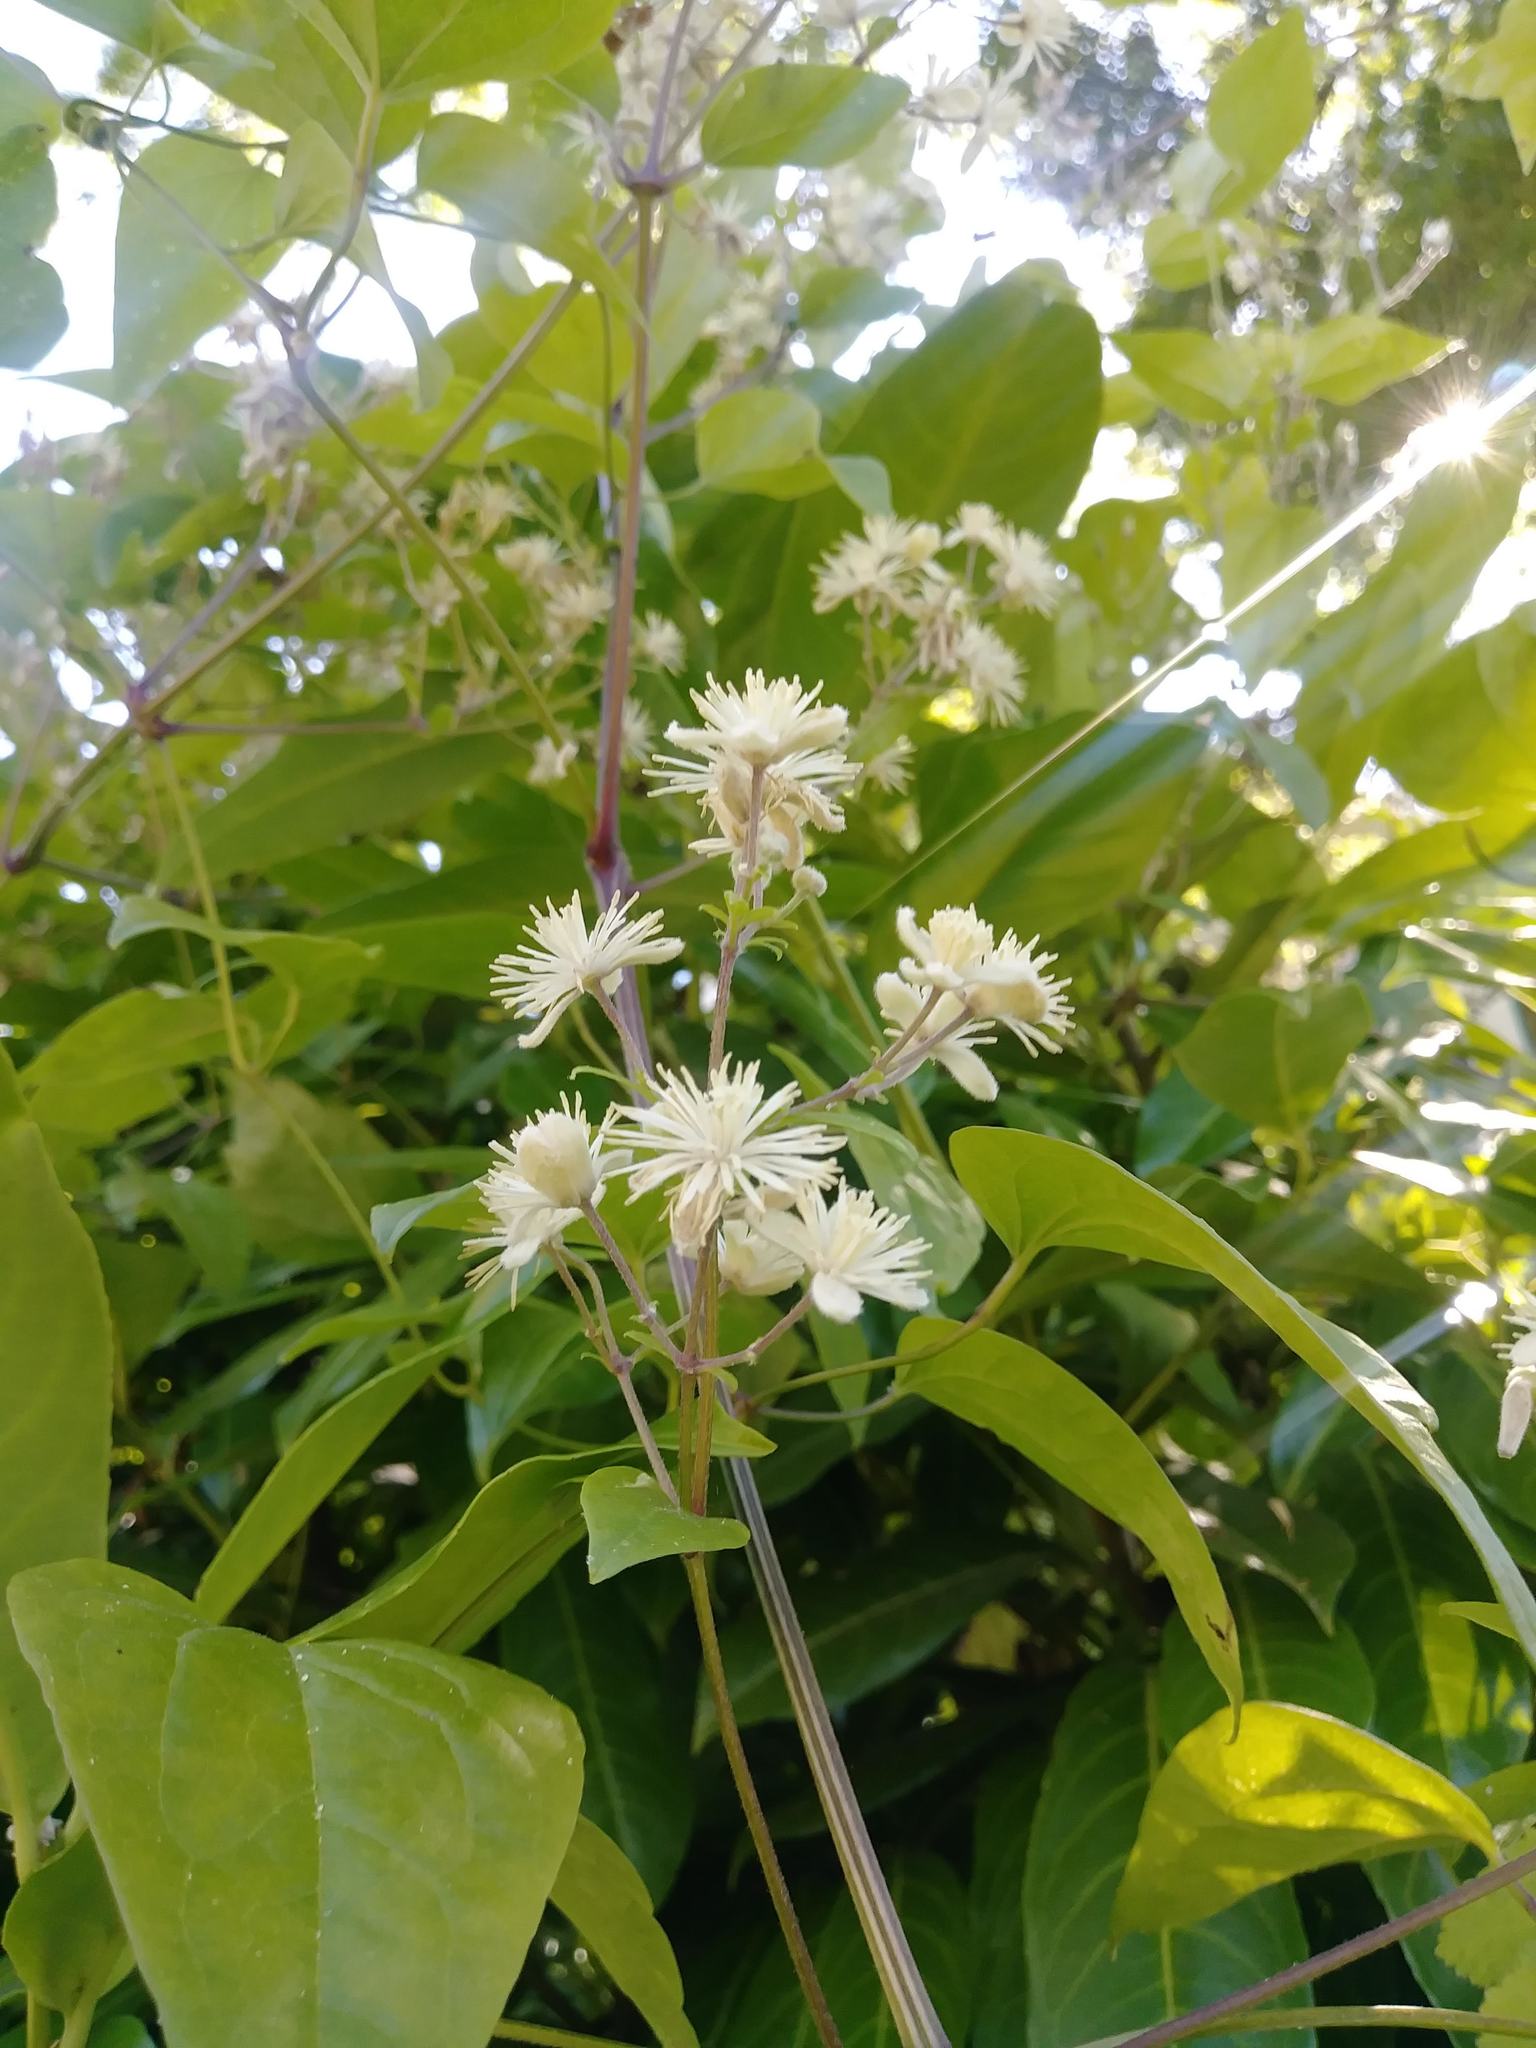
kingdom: Plantae
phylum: Tracheophyta
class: Magnoliopsida
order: Ranunculales
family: Ranunculaceae
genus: Clematis
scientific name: Clematis vitalba
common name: Evergreen clematis
